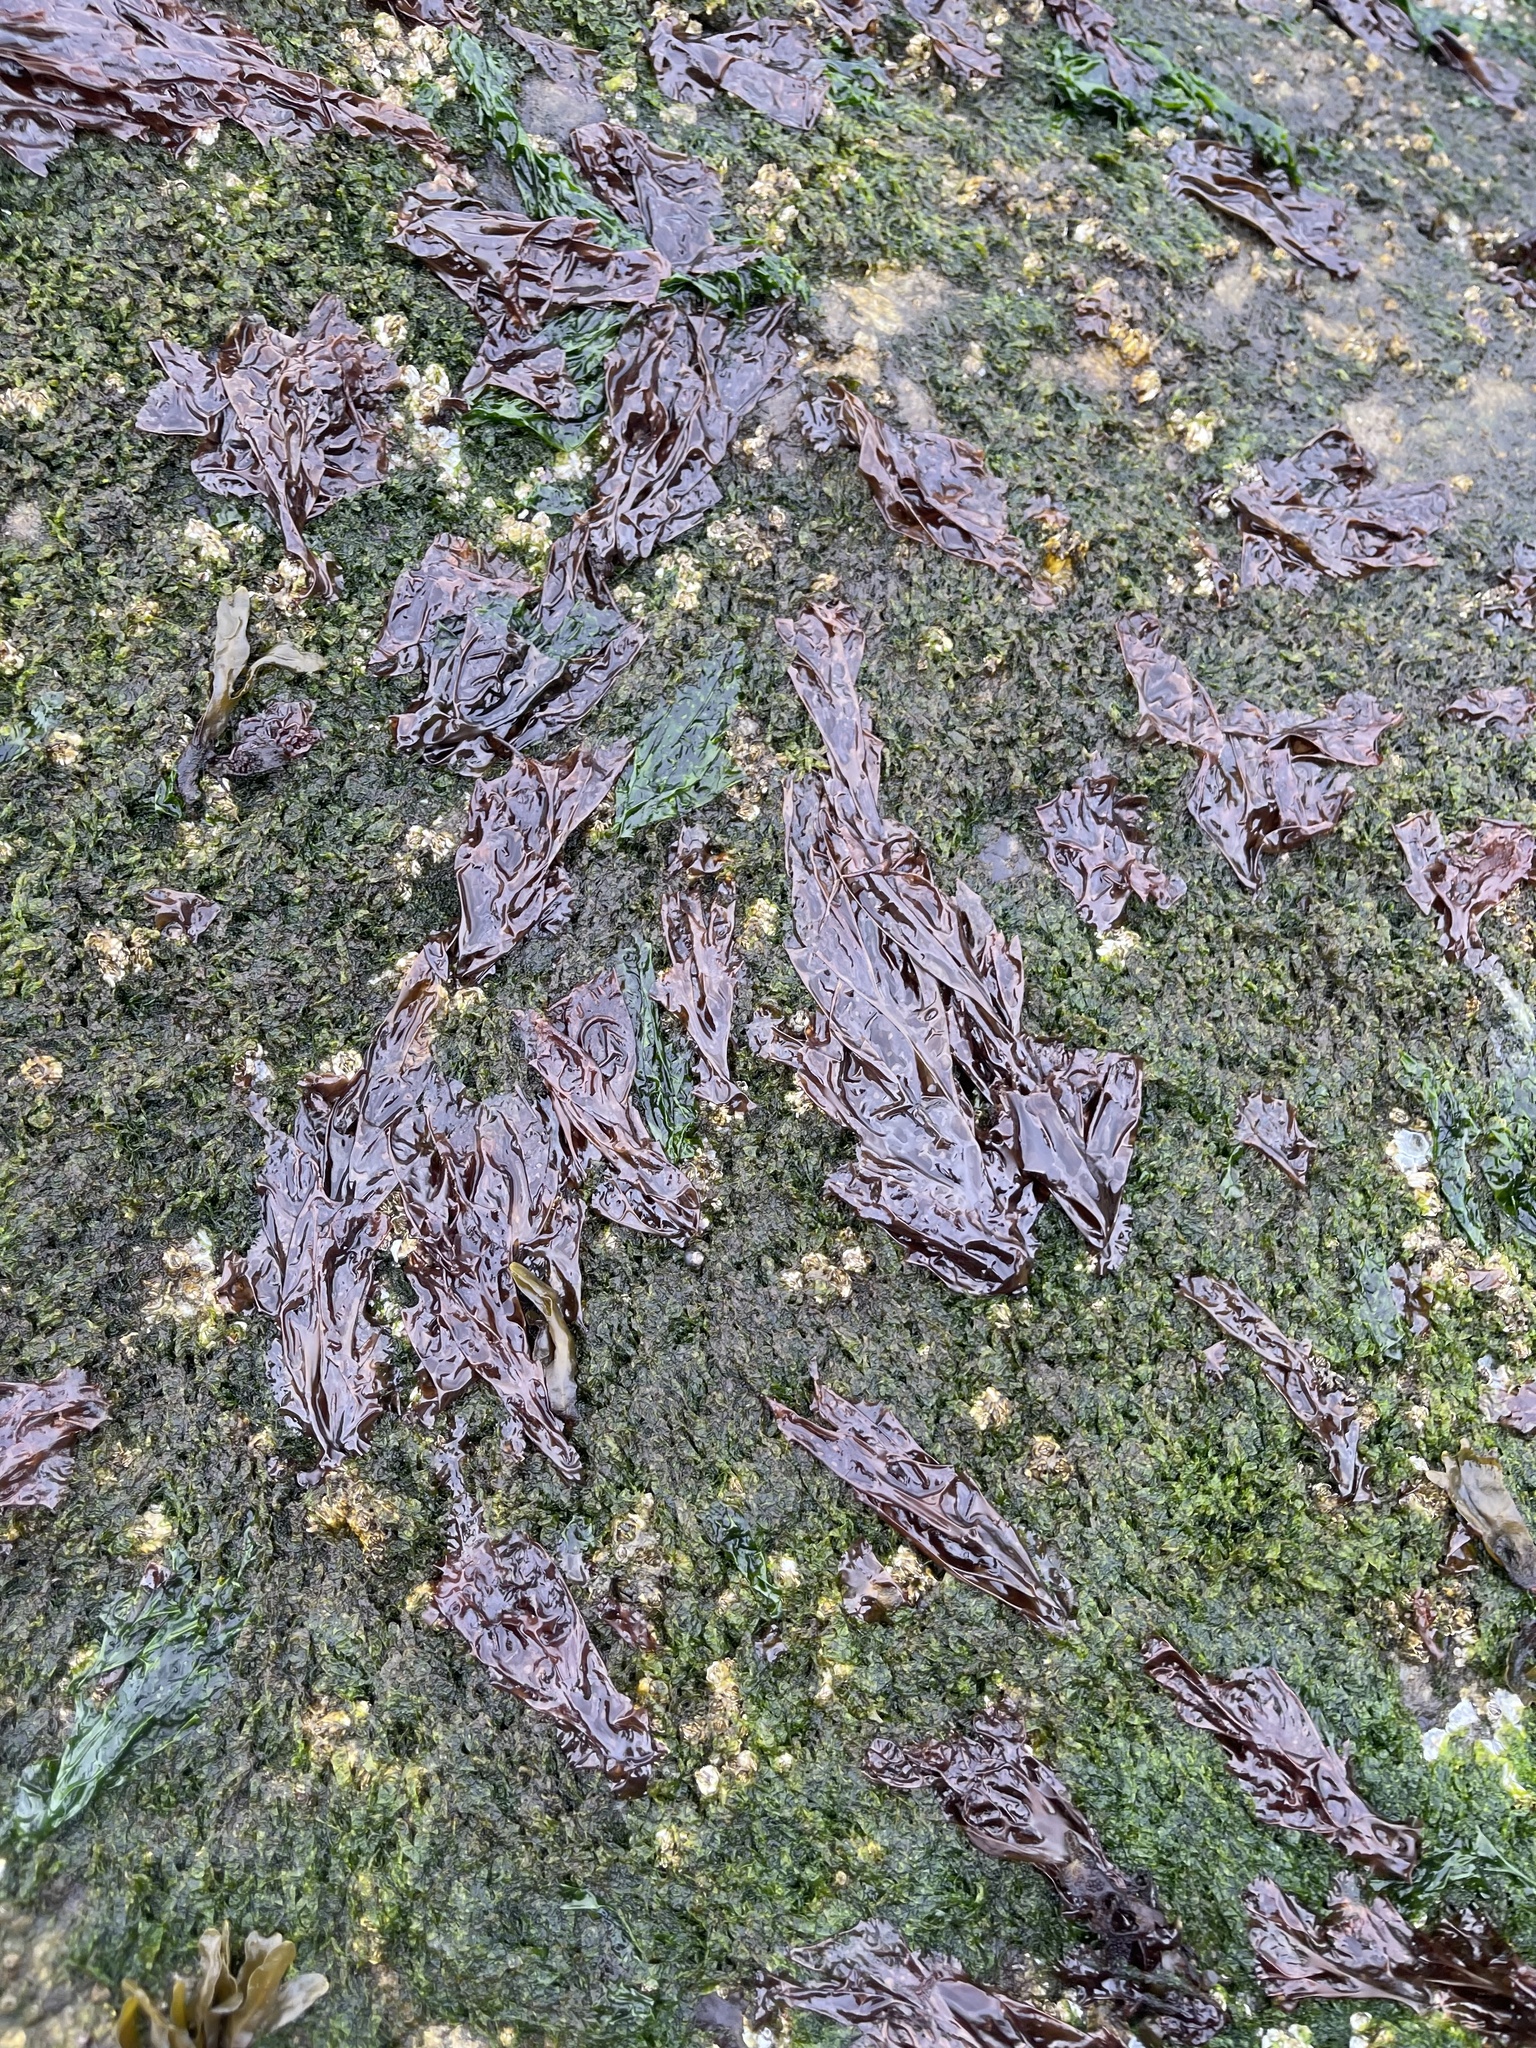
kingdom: Plantae
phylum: Rhodophyta
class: Bangiophyceae
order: Bangiales
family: Bangiaceae
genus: Neoporphyra
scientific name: Neoporphyra perforata
